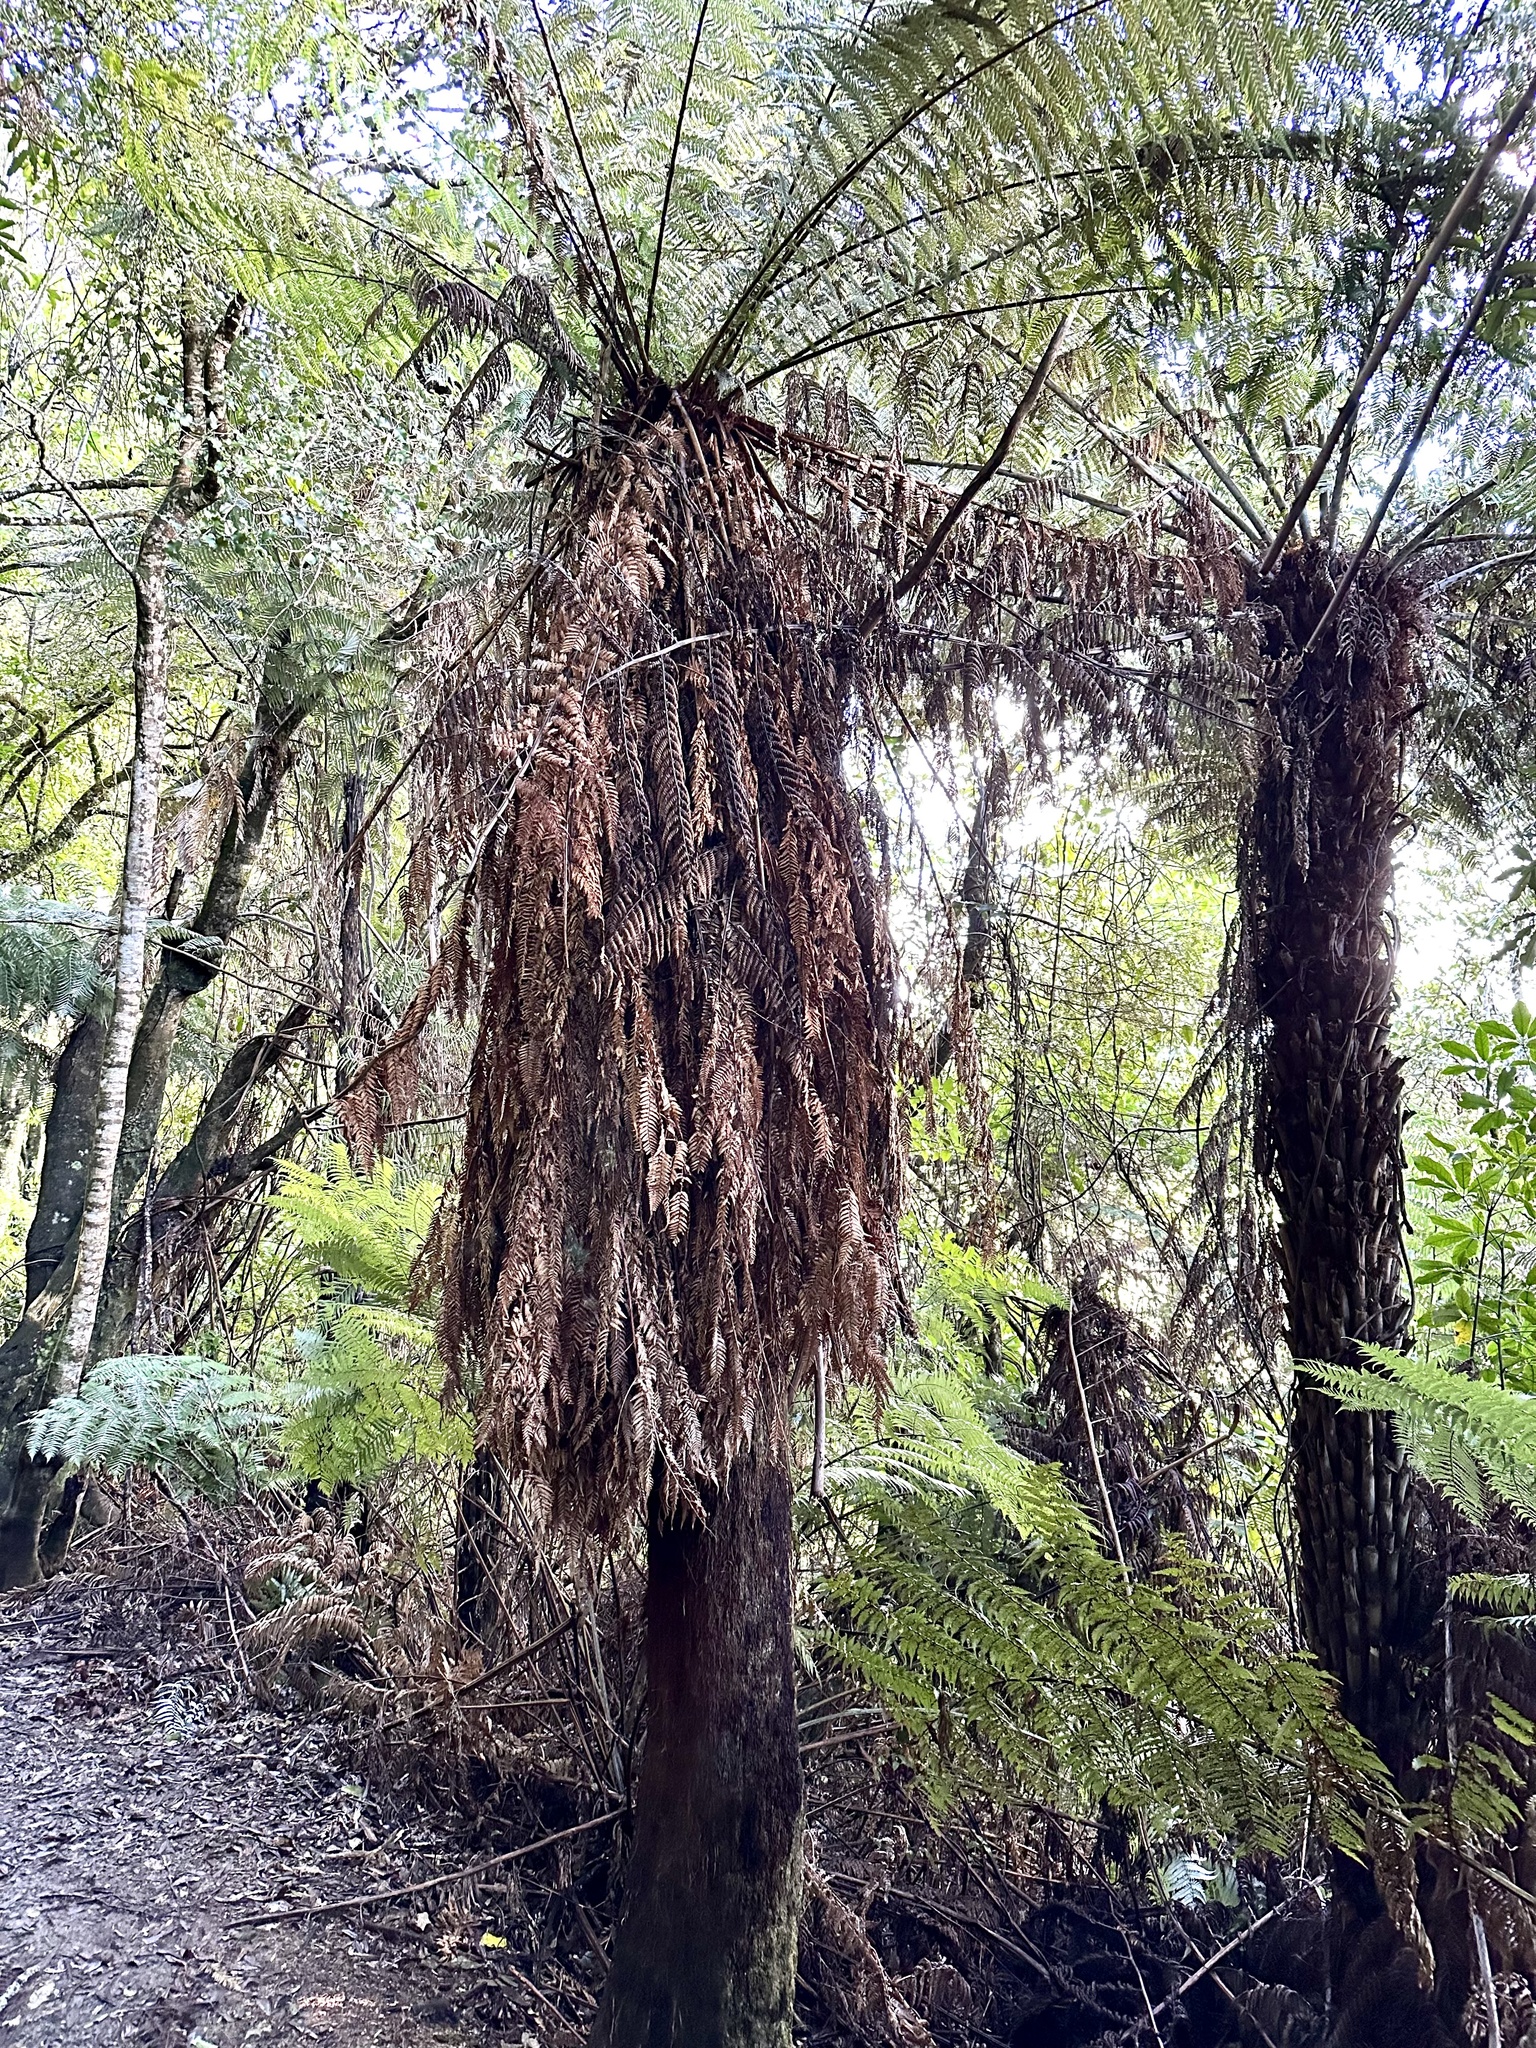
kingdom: Plantae
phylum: Tracheophyta
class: Polypodiopsida
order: Cyatheales
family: Dicksoniaceae
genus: Dicksonia
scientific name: Dicksonia fibrosa
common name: Golden tree fern
